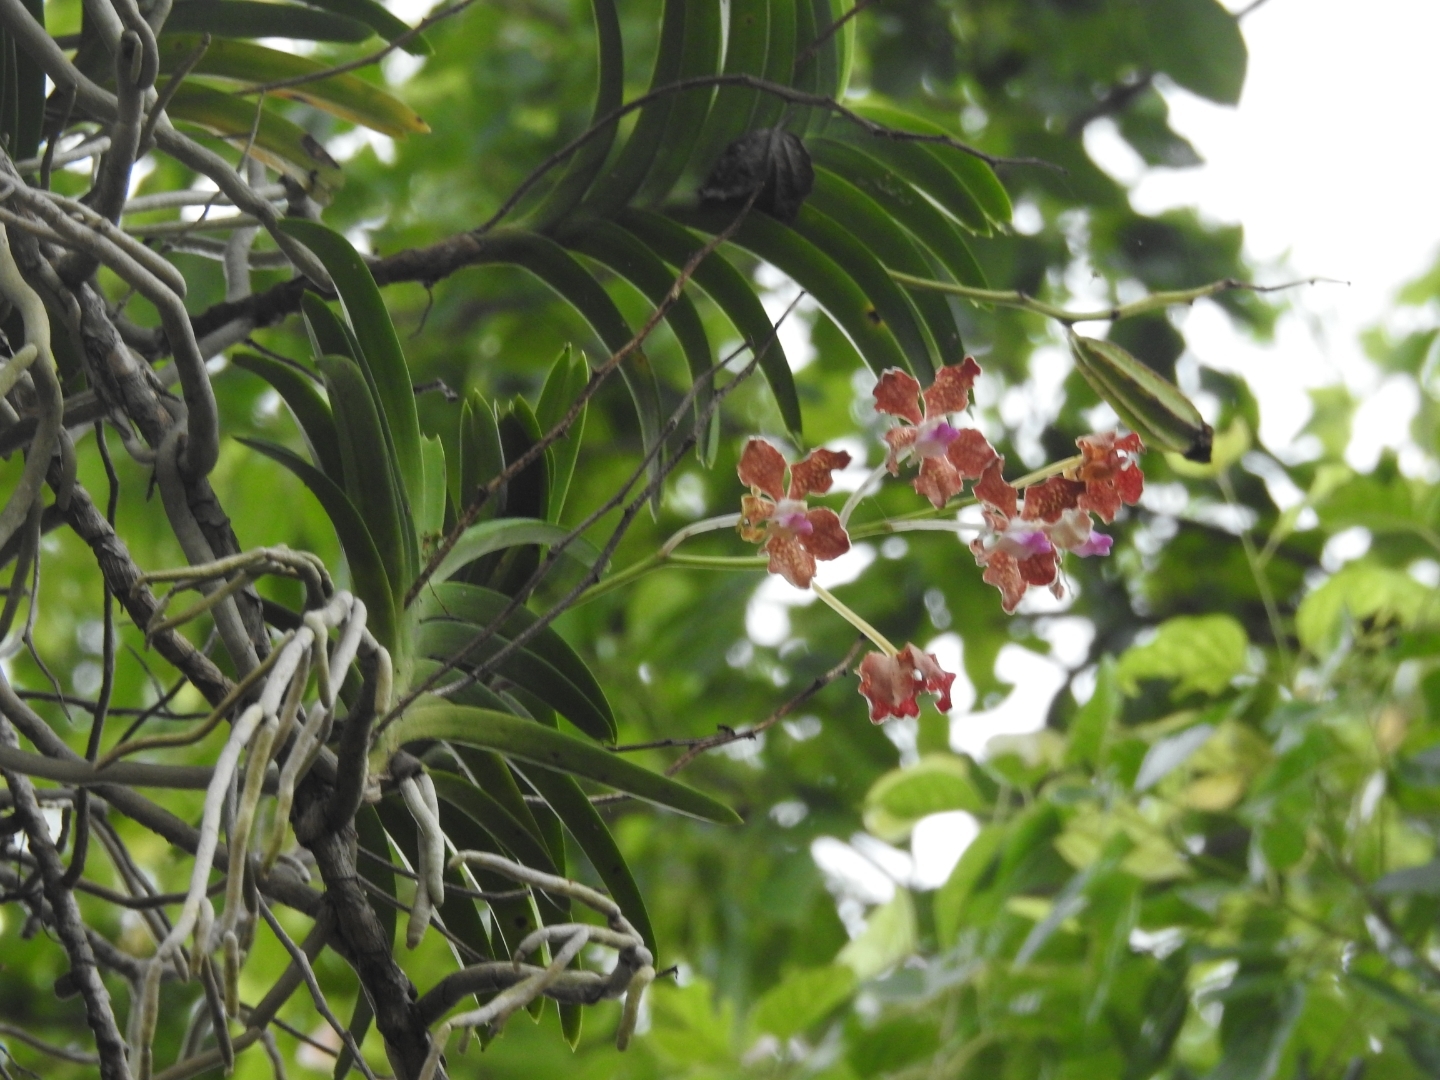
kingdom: Plantae
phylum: Tracheophyta
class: Liliopsida
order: Asparagales
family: Orchidaceae
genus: Vanda
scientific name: Vanda tessellata
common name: Grey orchid
